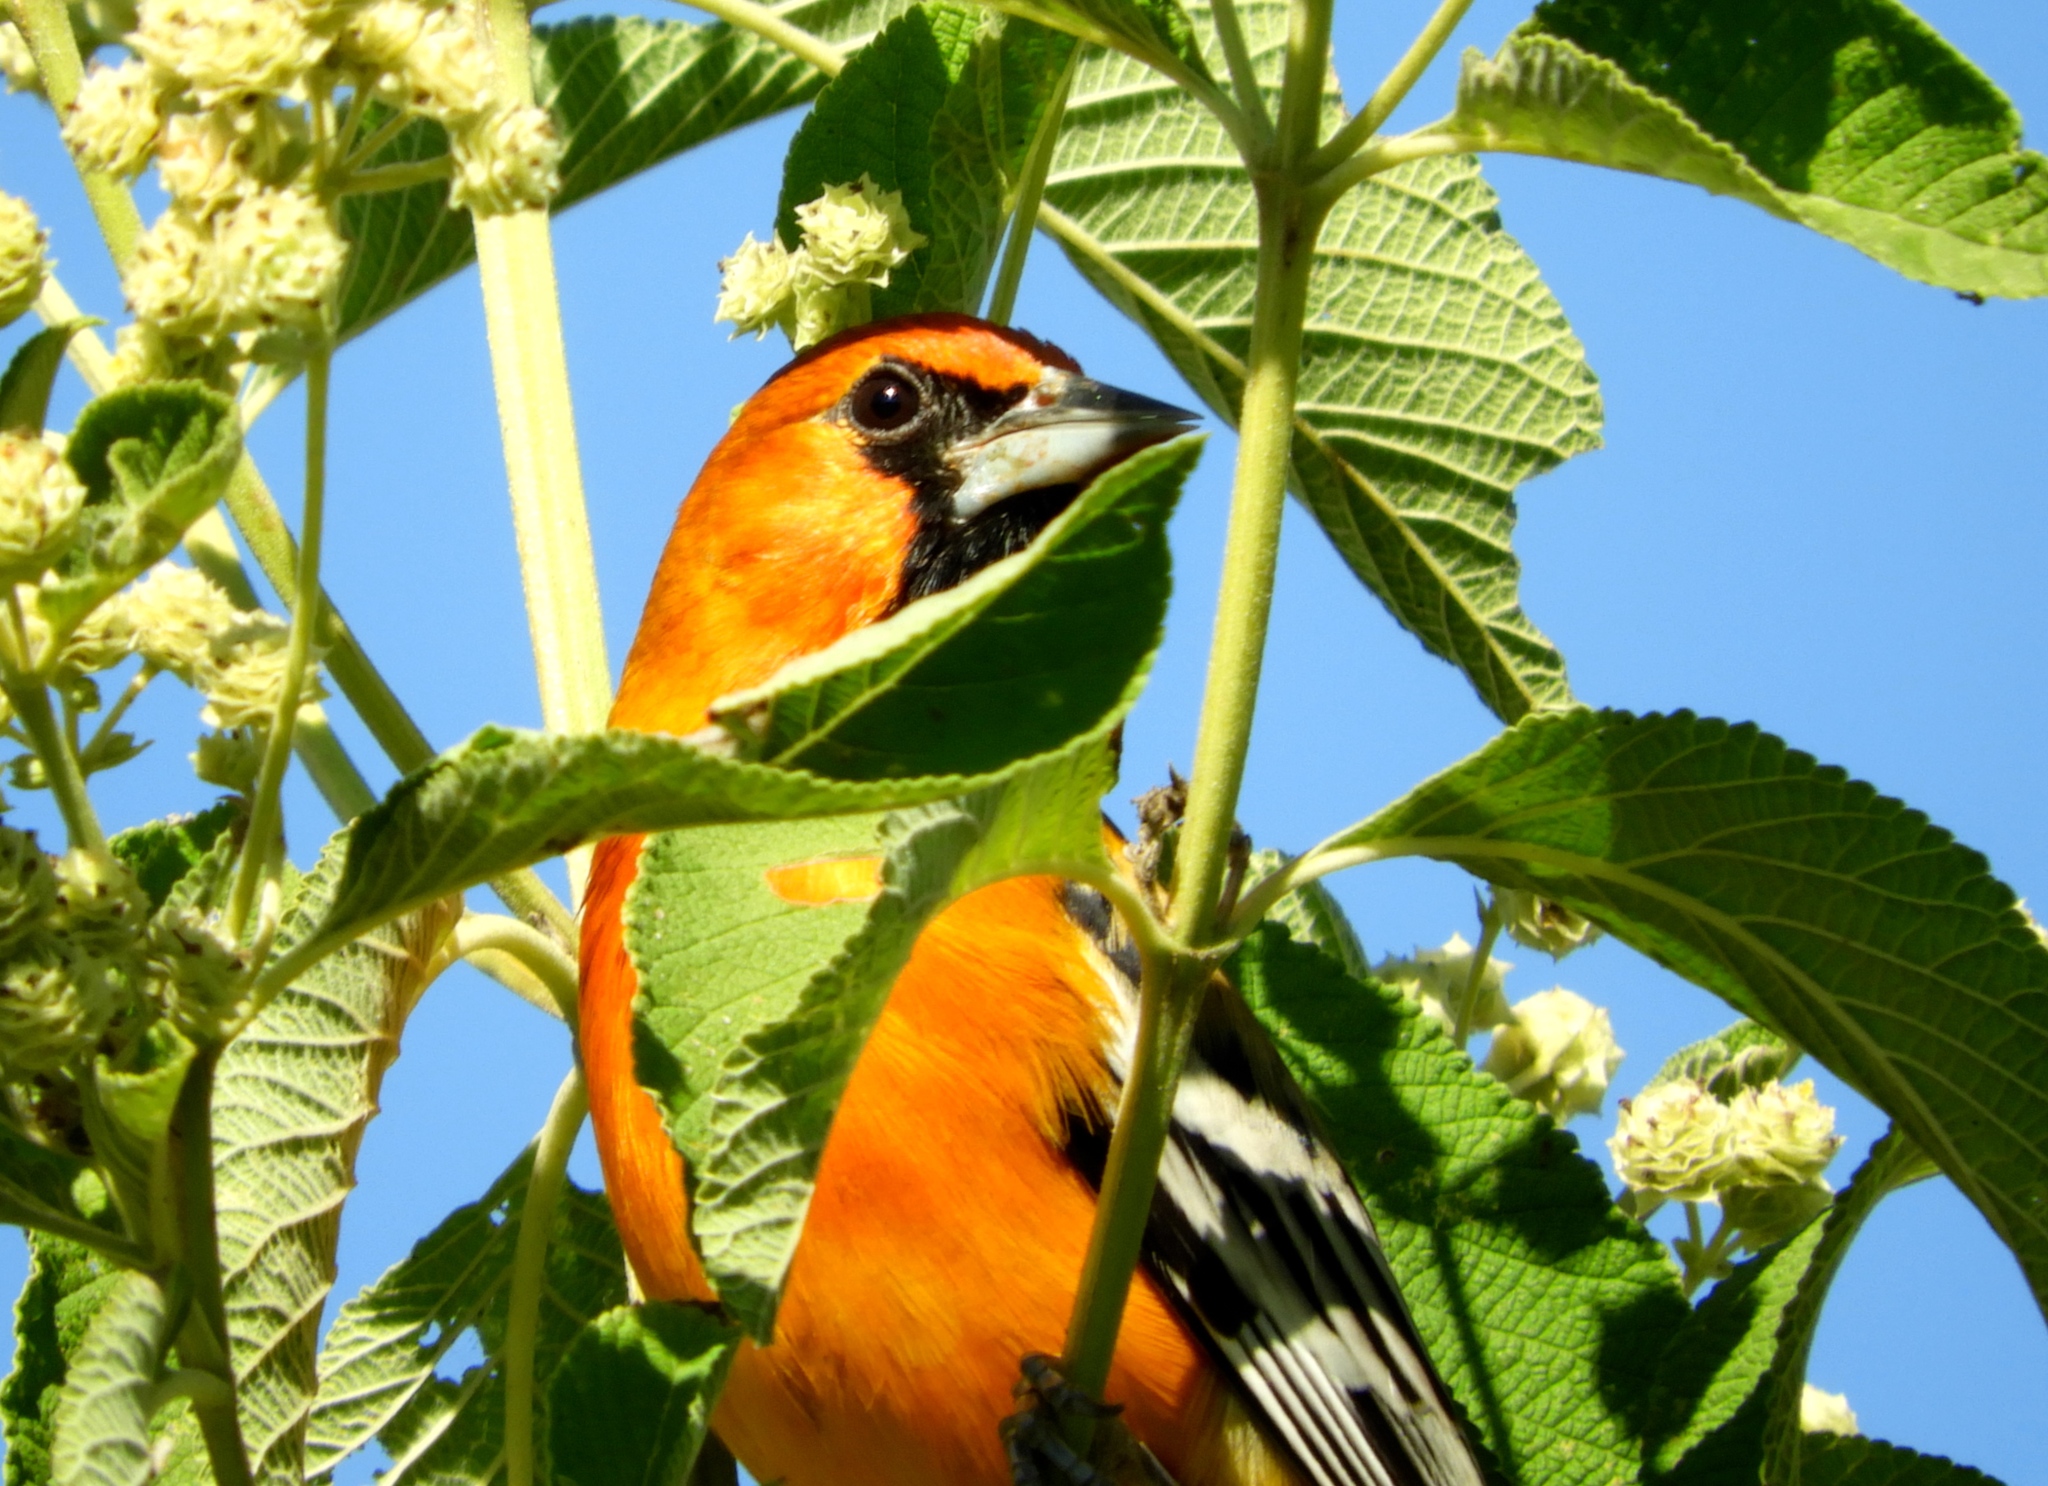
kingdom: Animalia
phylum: Chordata
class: Aves
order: Passeriformes
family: Icteridae
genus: Icterus
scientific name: Icterus pustulatus
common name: Streak-backed oriole
